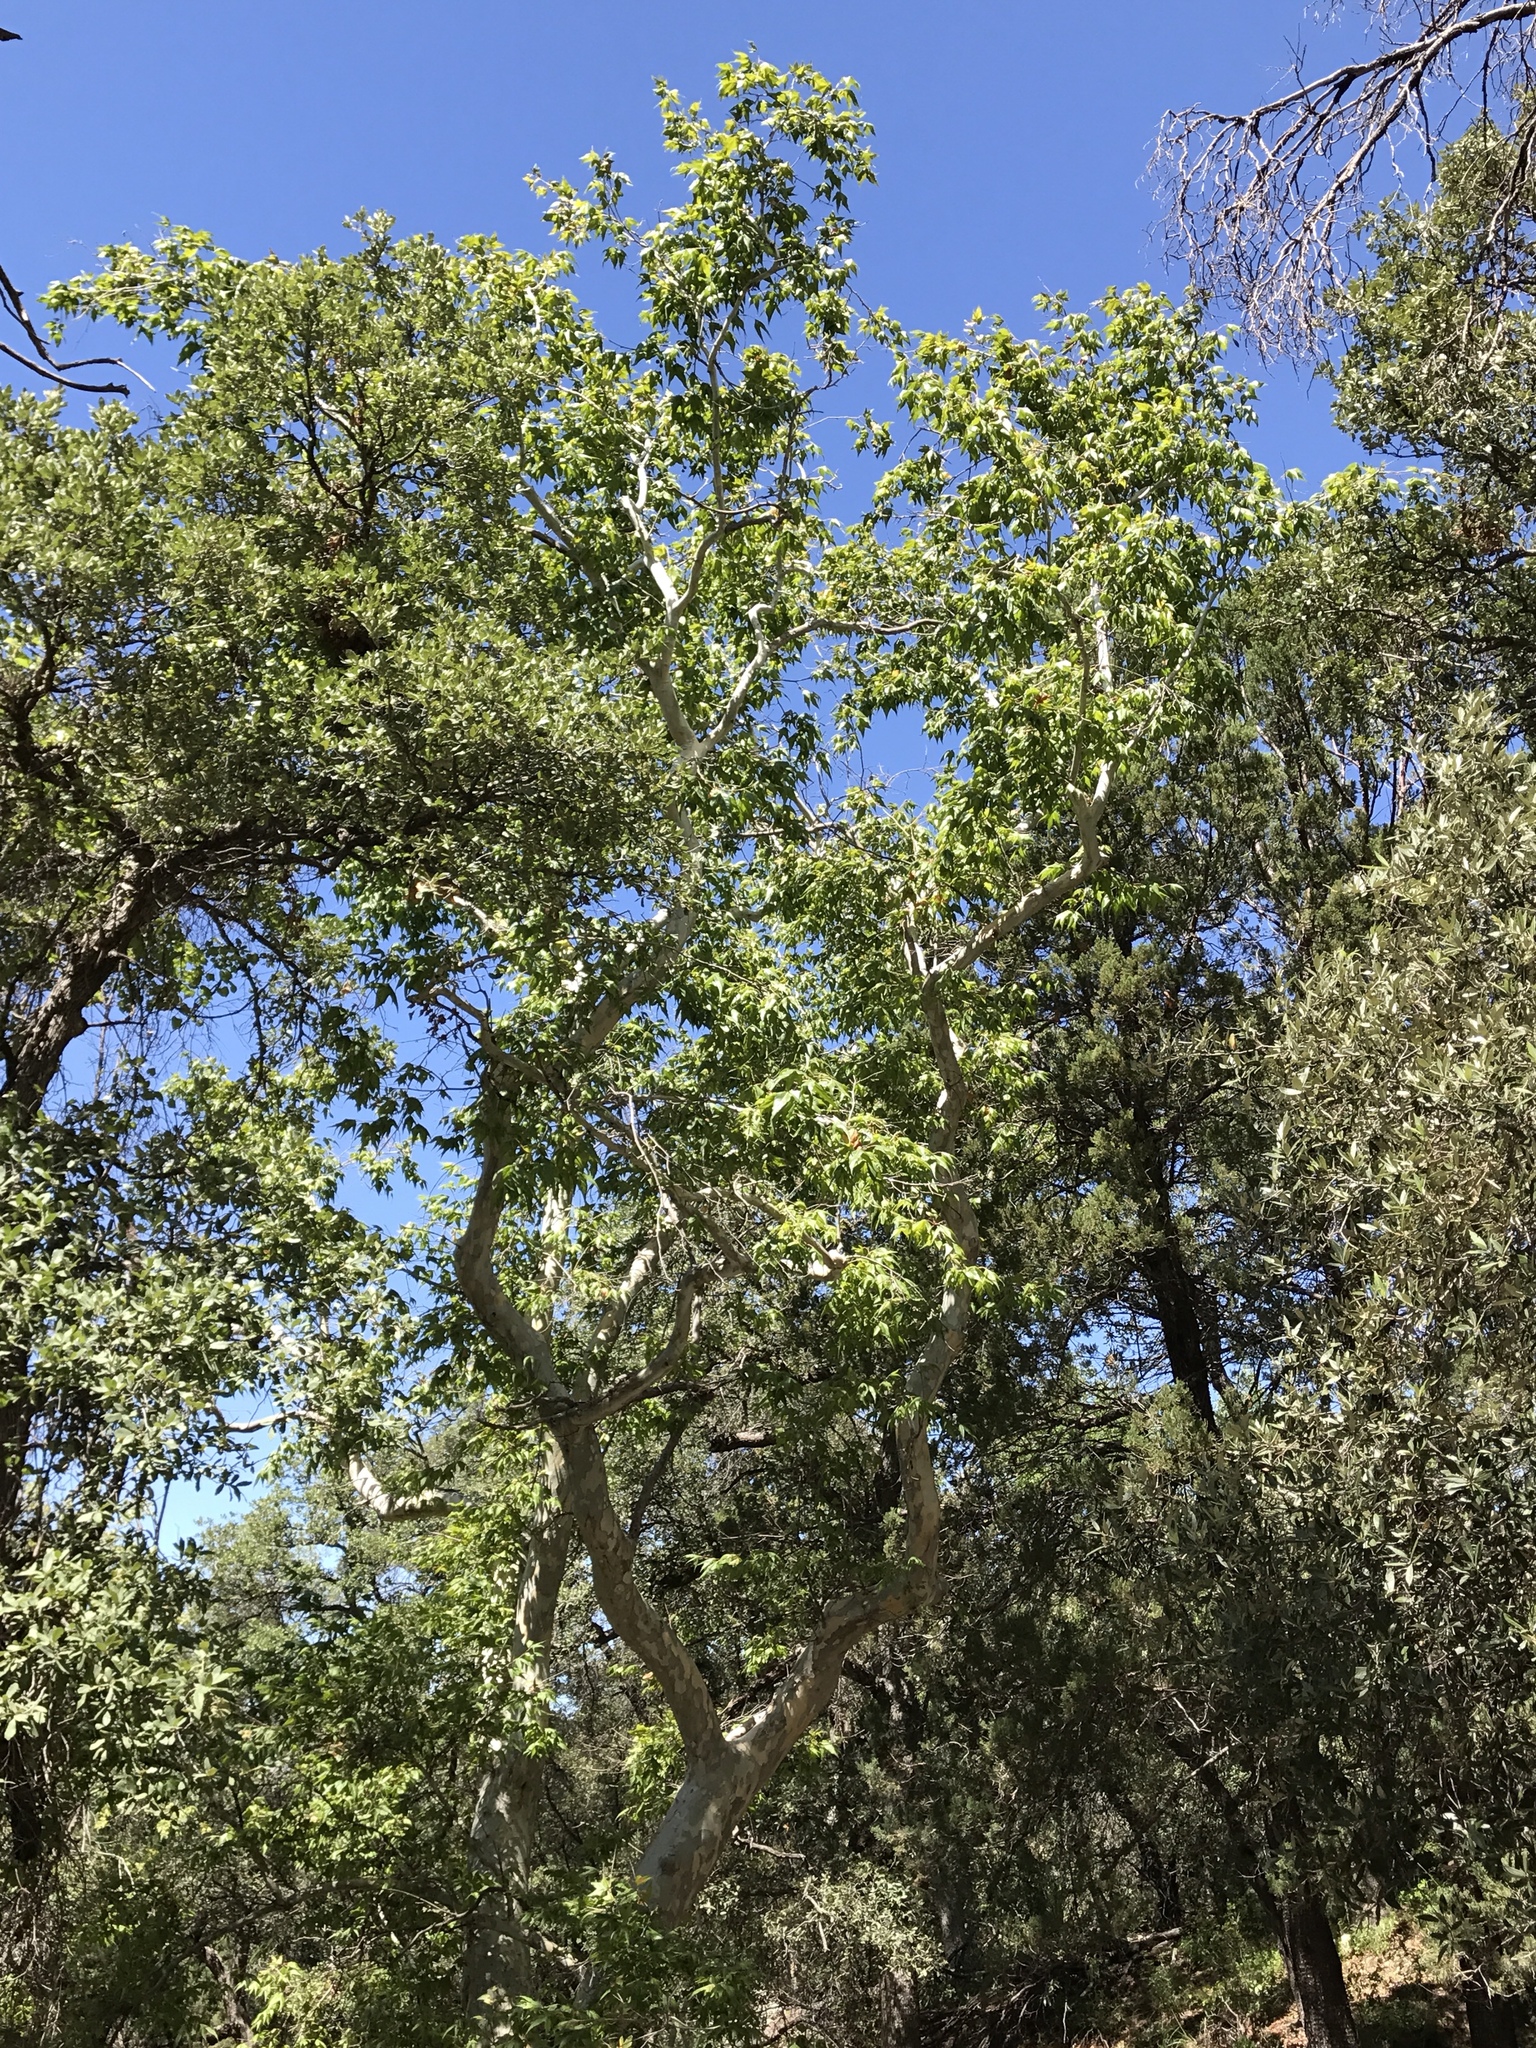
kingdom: Plantae
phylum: Tracheophyta
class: Magnoliopsida
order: Proteales
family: Platanaceae
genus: Platanus
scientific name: Platanus wrightii
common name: Arizona sycamore
